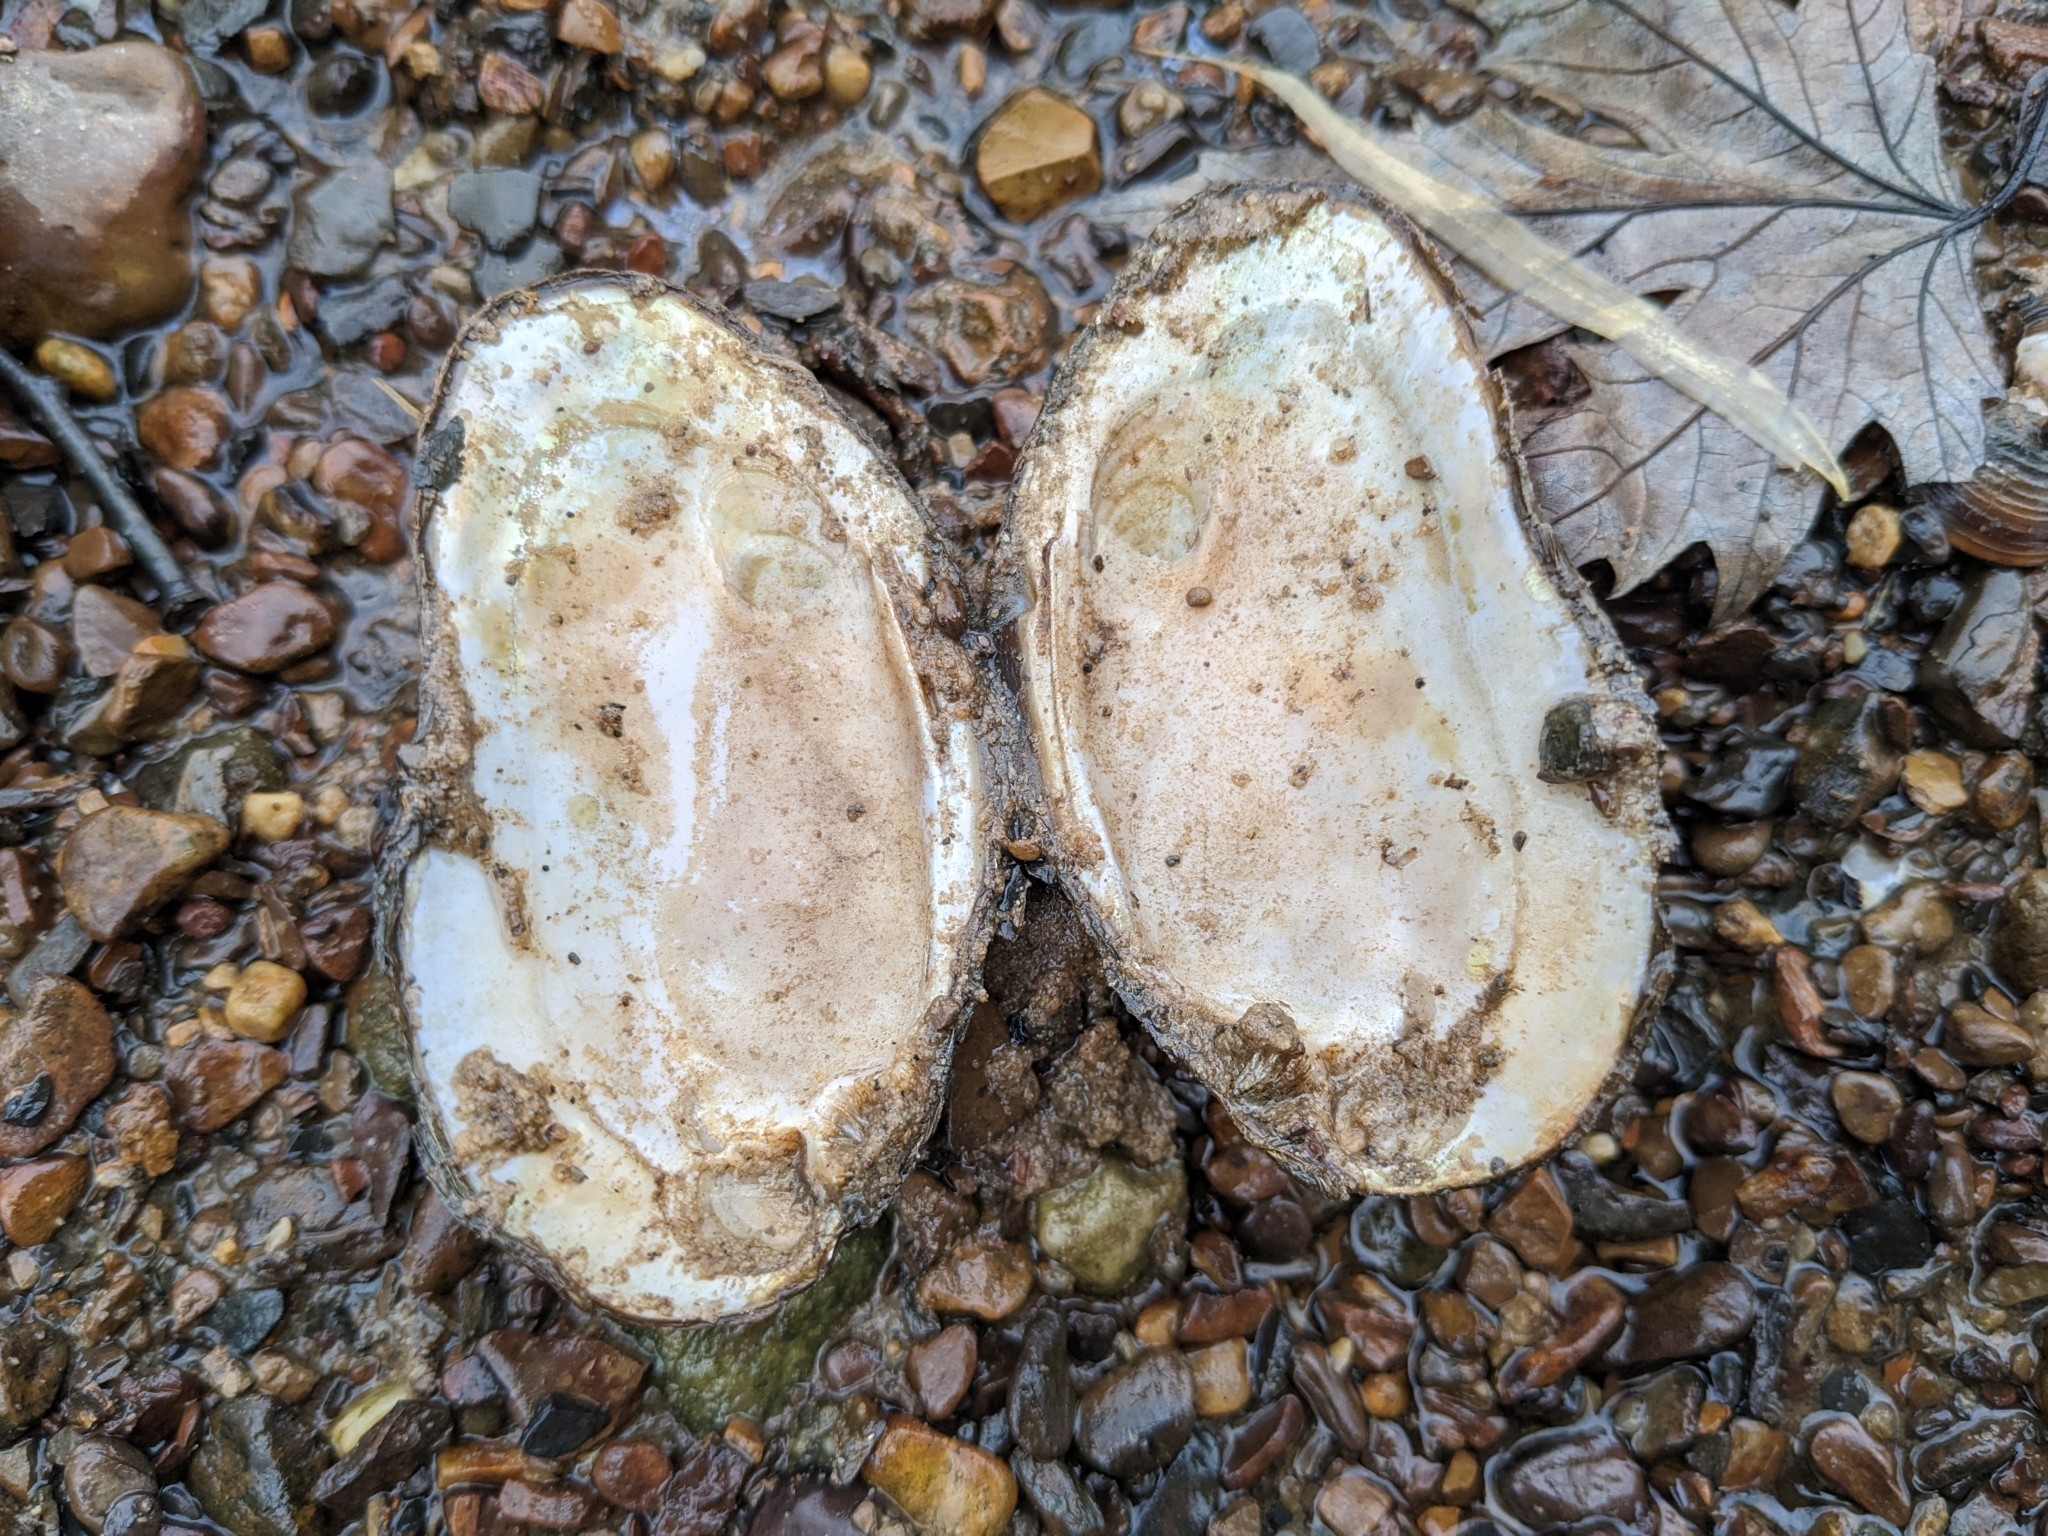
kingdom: Animalia
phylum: Mollusca
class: Bivalvia
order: Unionida
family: Unionidae
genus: Elliptio
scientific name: Elliptio complanata
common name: Eastern elliptio
